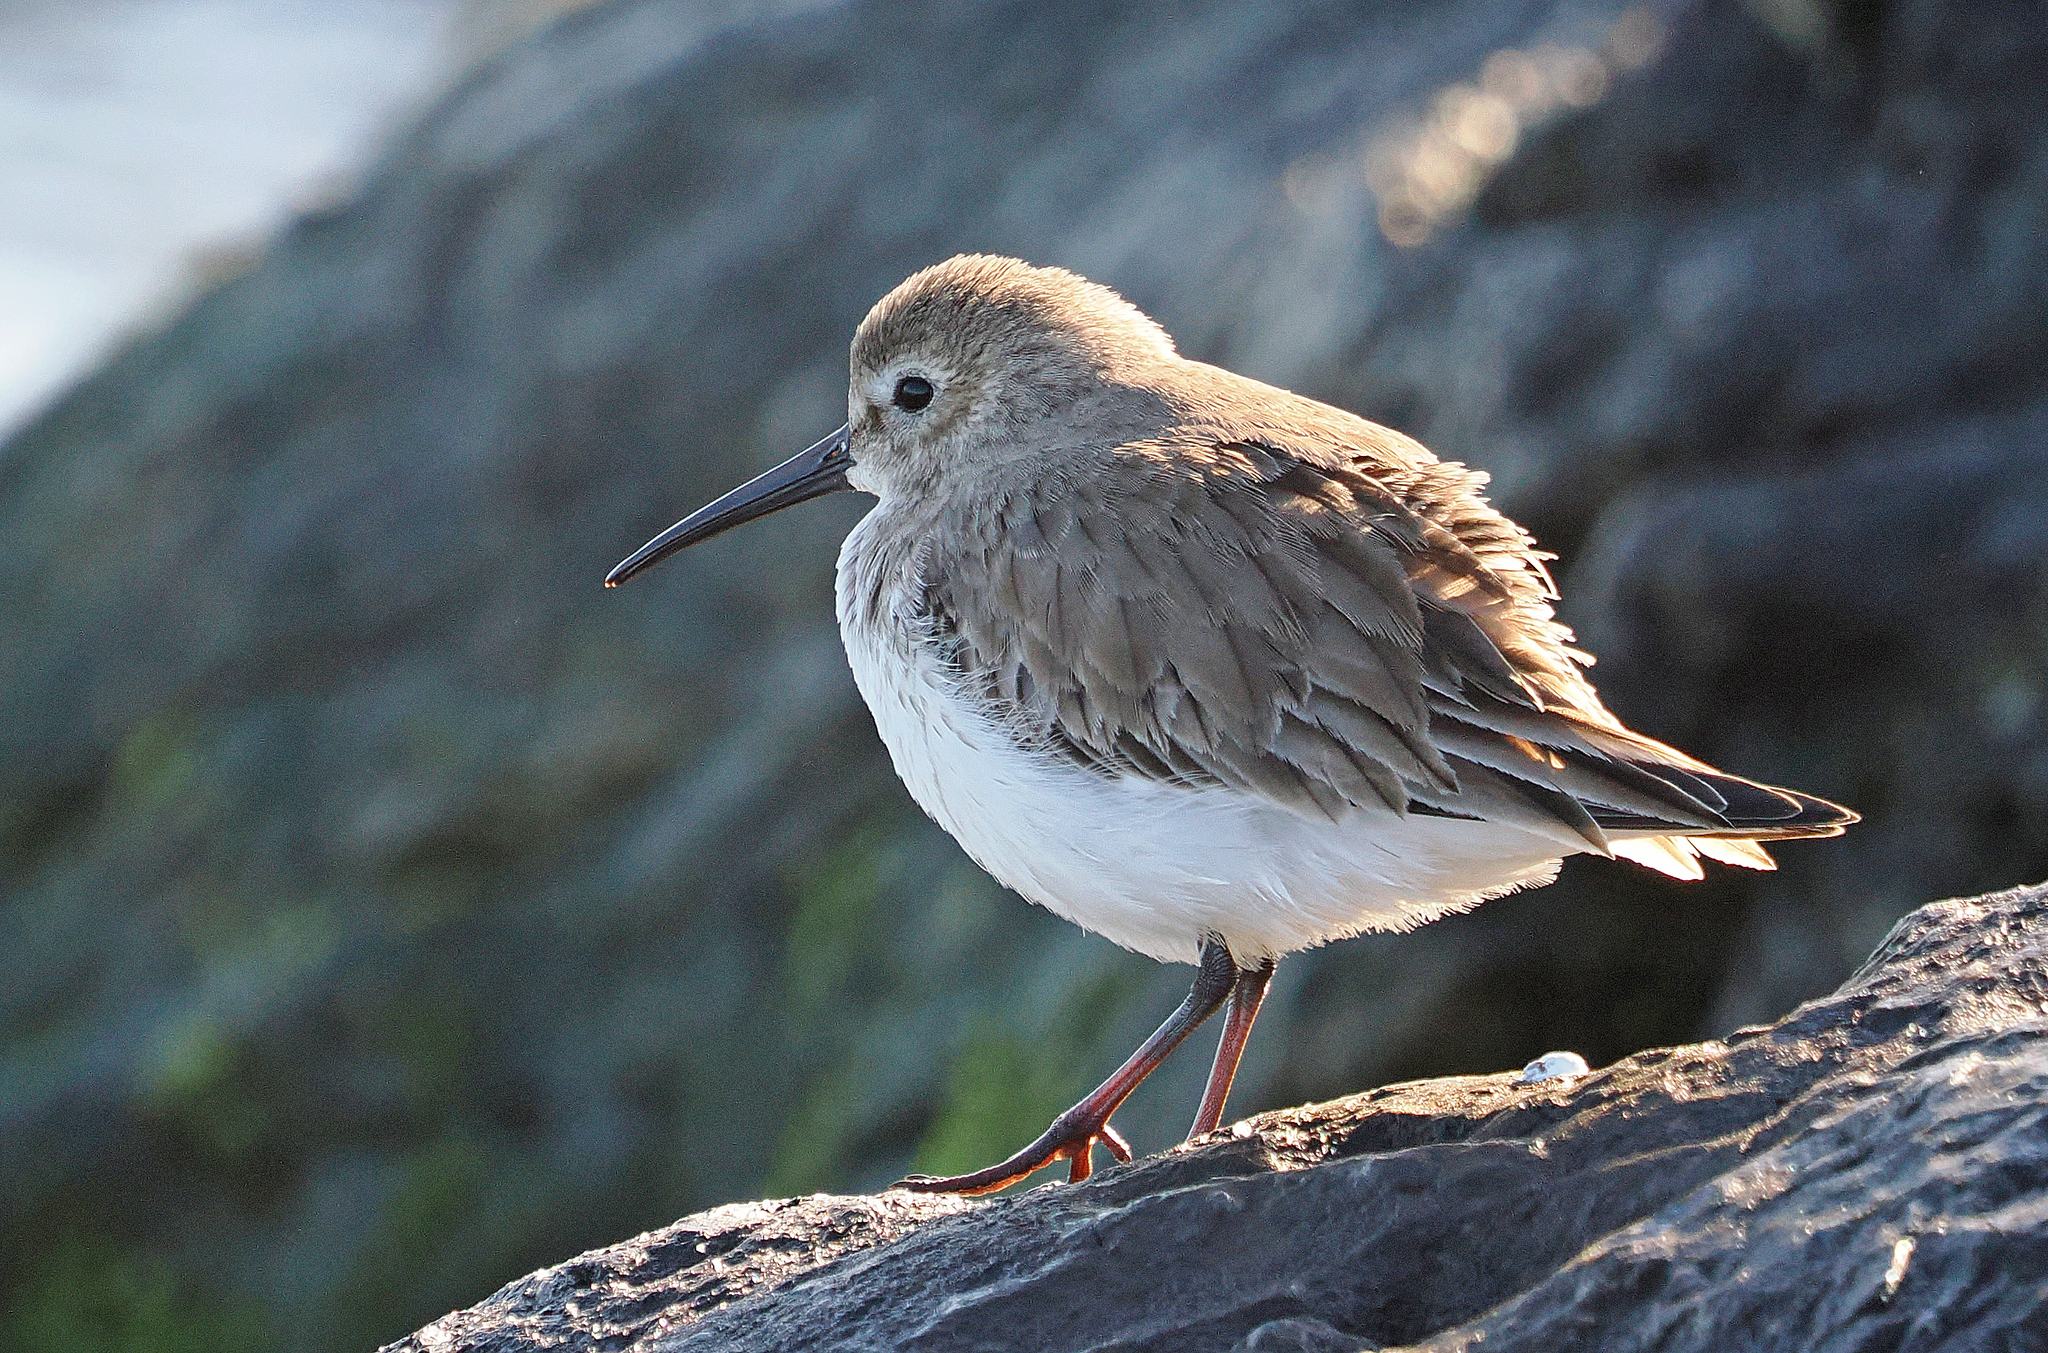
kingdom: Animalia
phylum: Chordata
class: Aves
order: Charadriiformes
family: Scolopacidae
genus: Calidris
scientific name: Calidris alpina
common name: Dunlin
